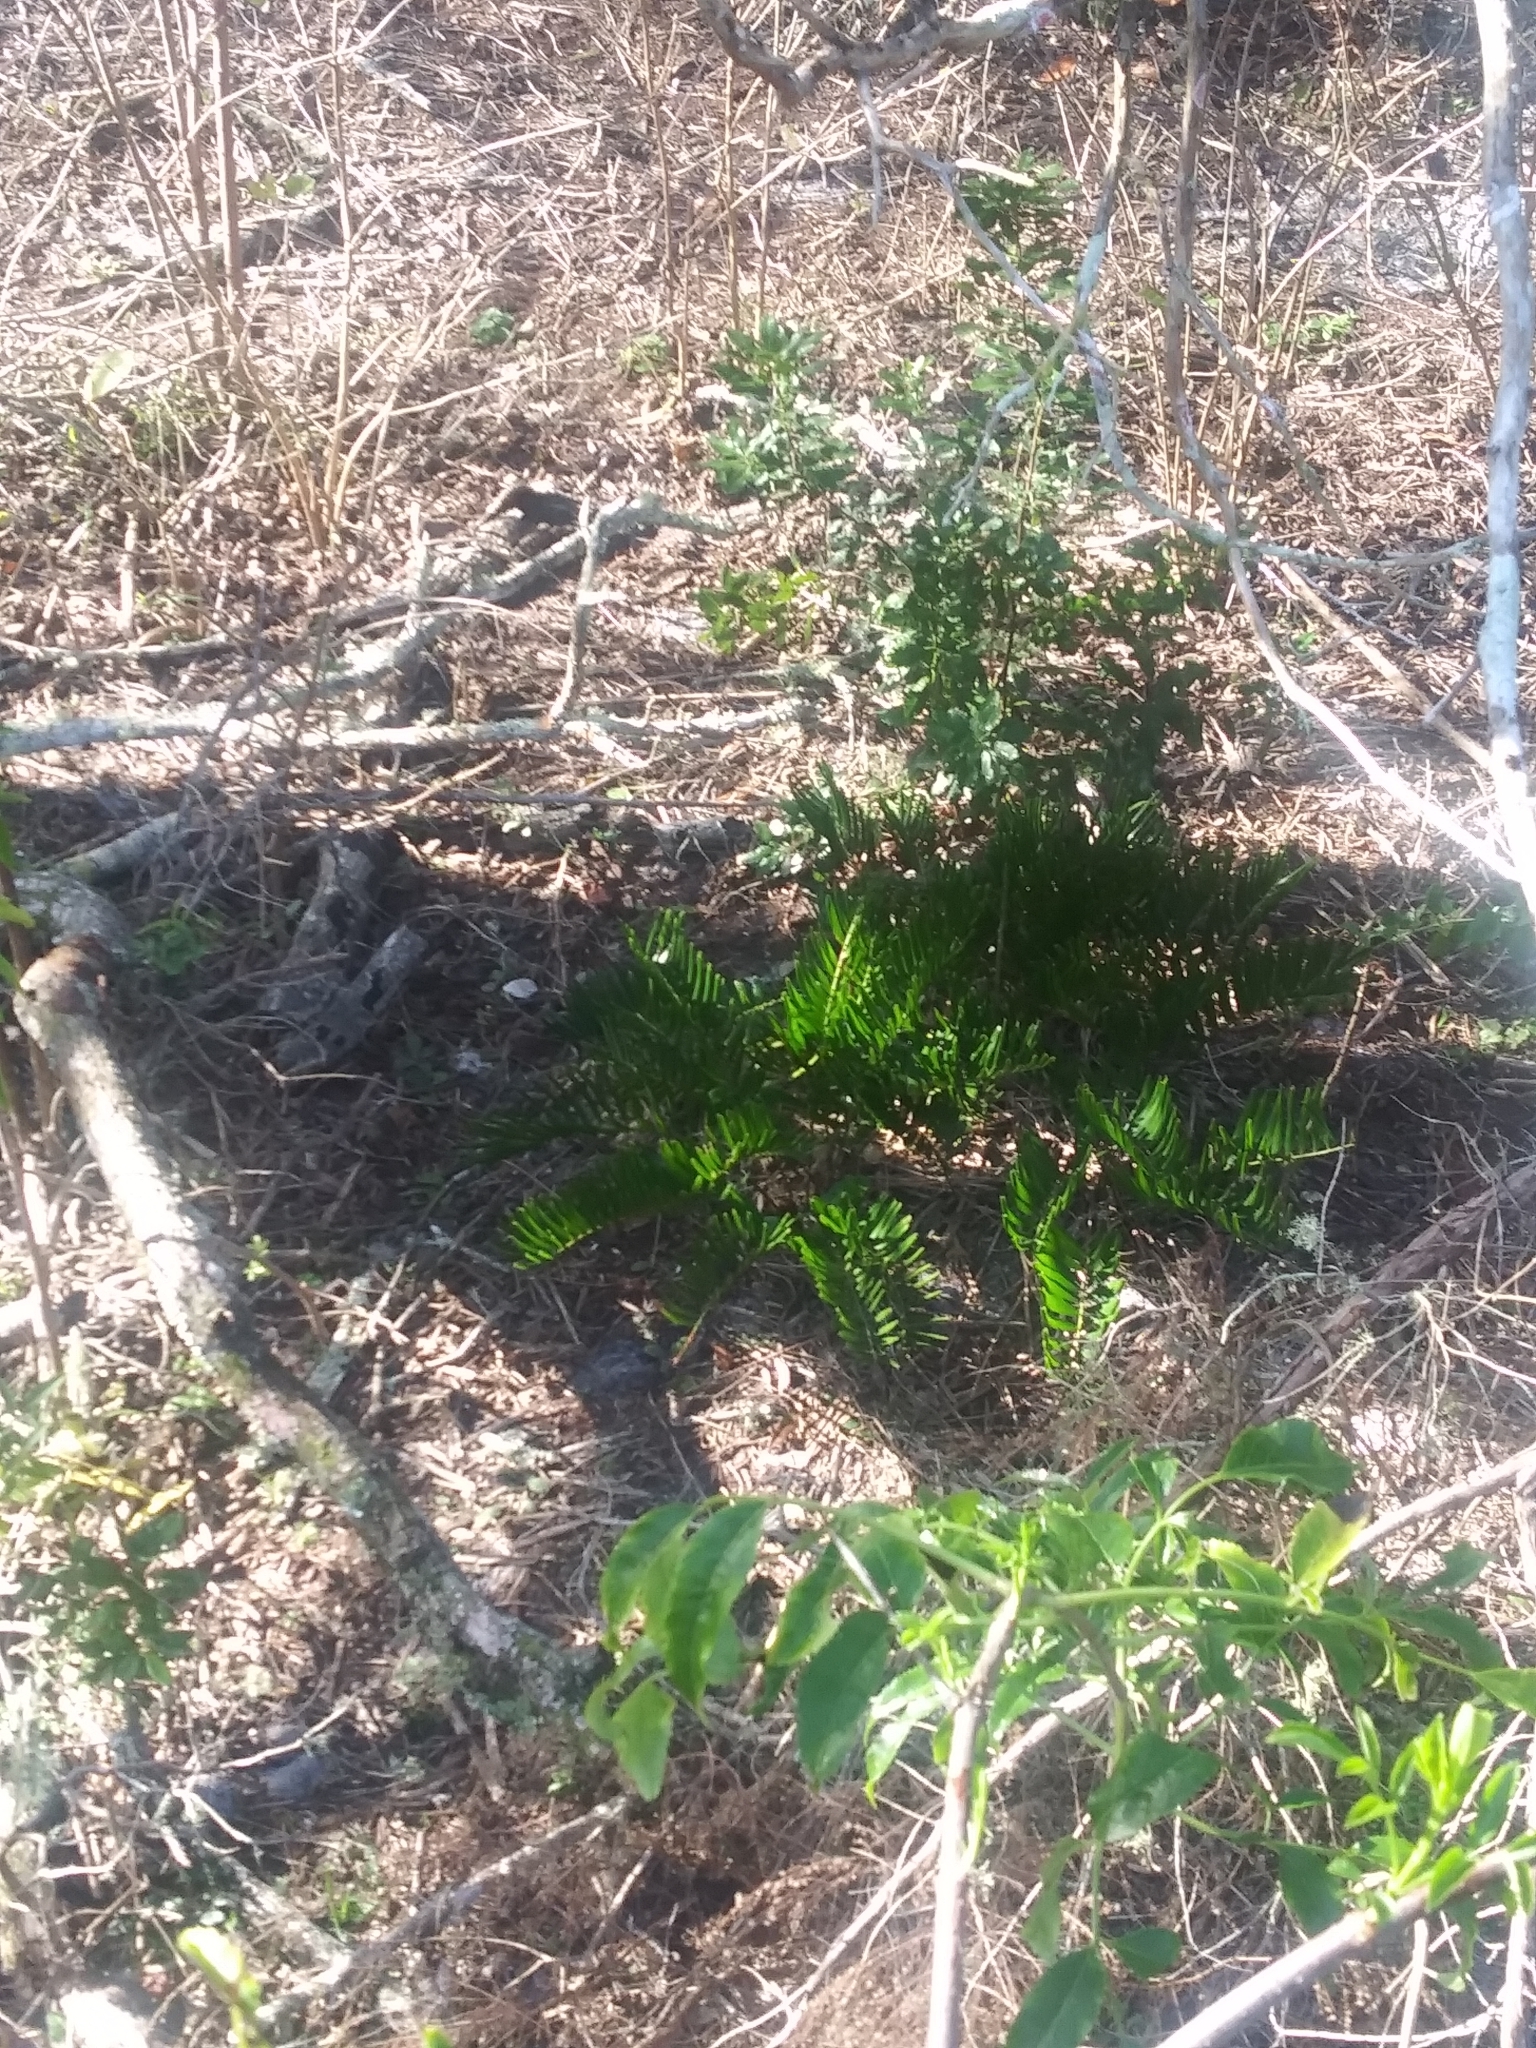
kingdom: Plantae
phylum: Tracheophyta
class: Cycadopsida
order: Cycadales
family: Zamiaceae
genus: Zamia
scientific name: Zamia integrifolia
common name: Florida arrowroot
